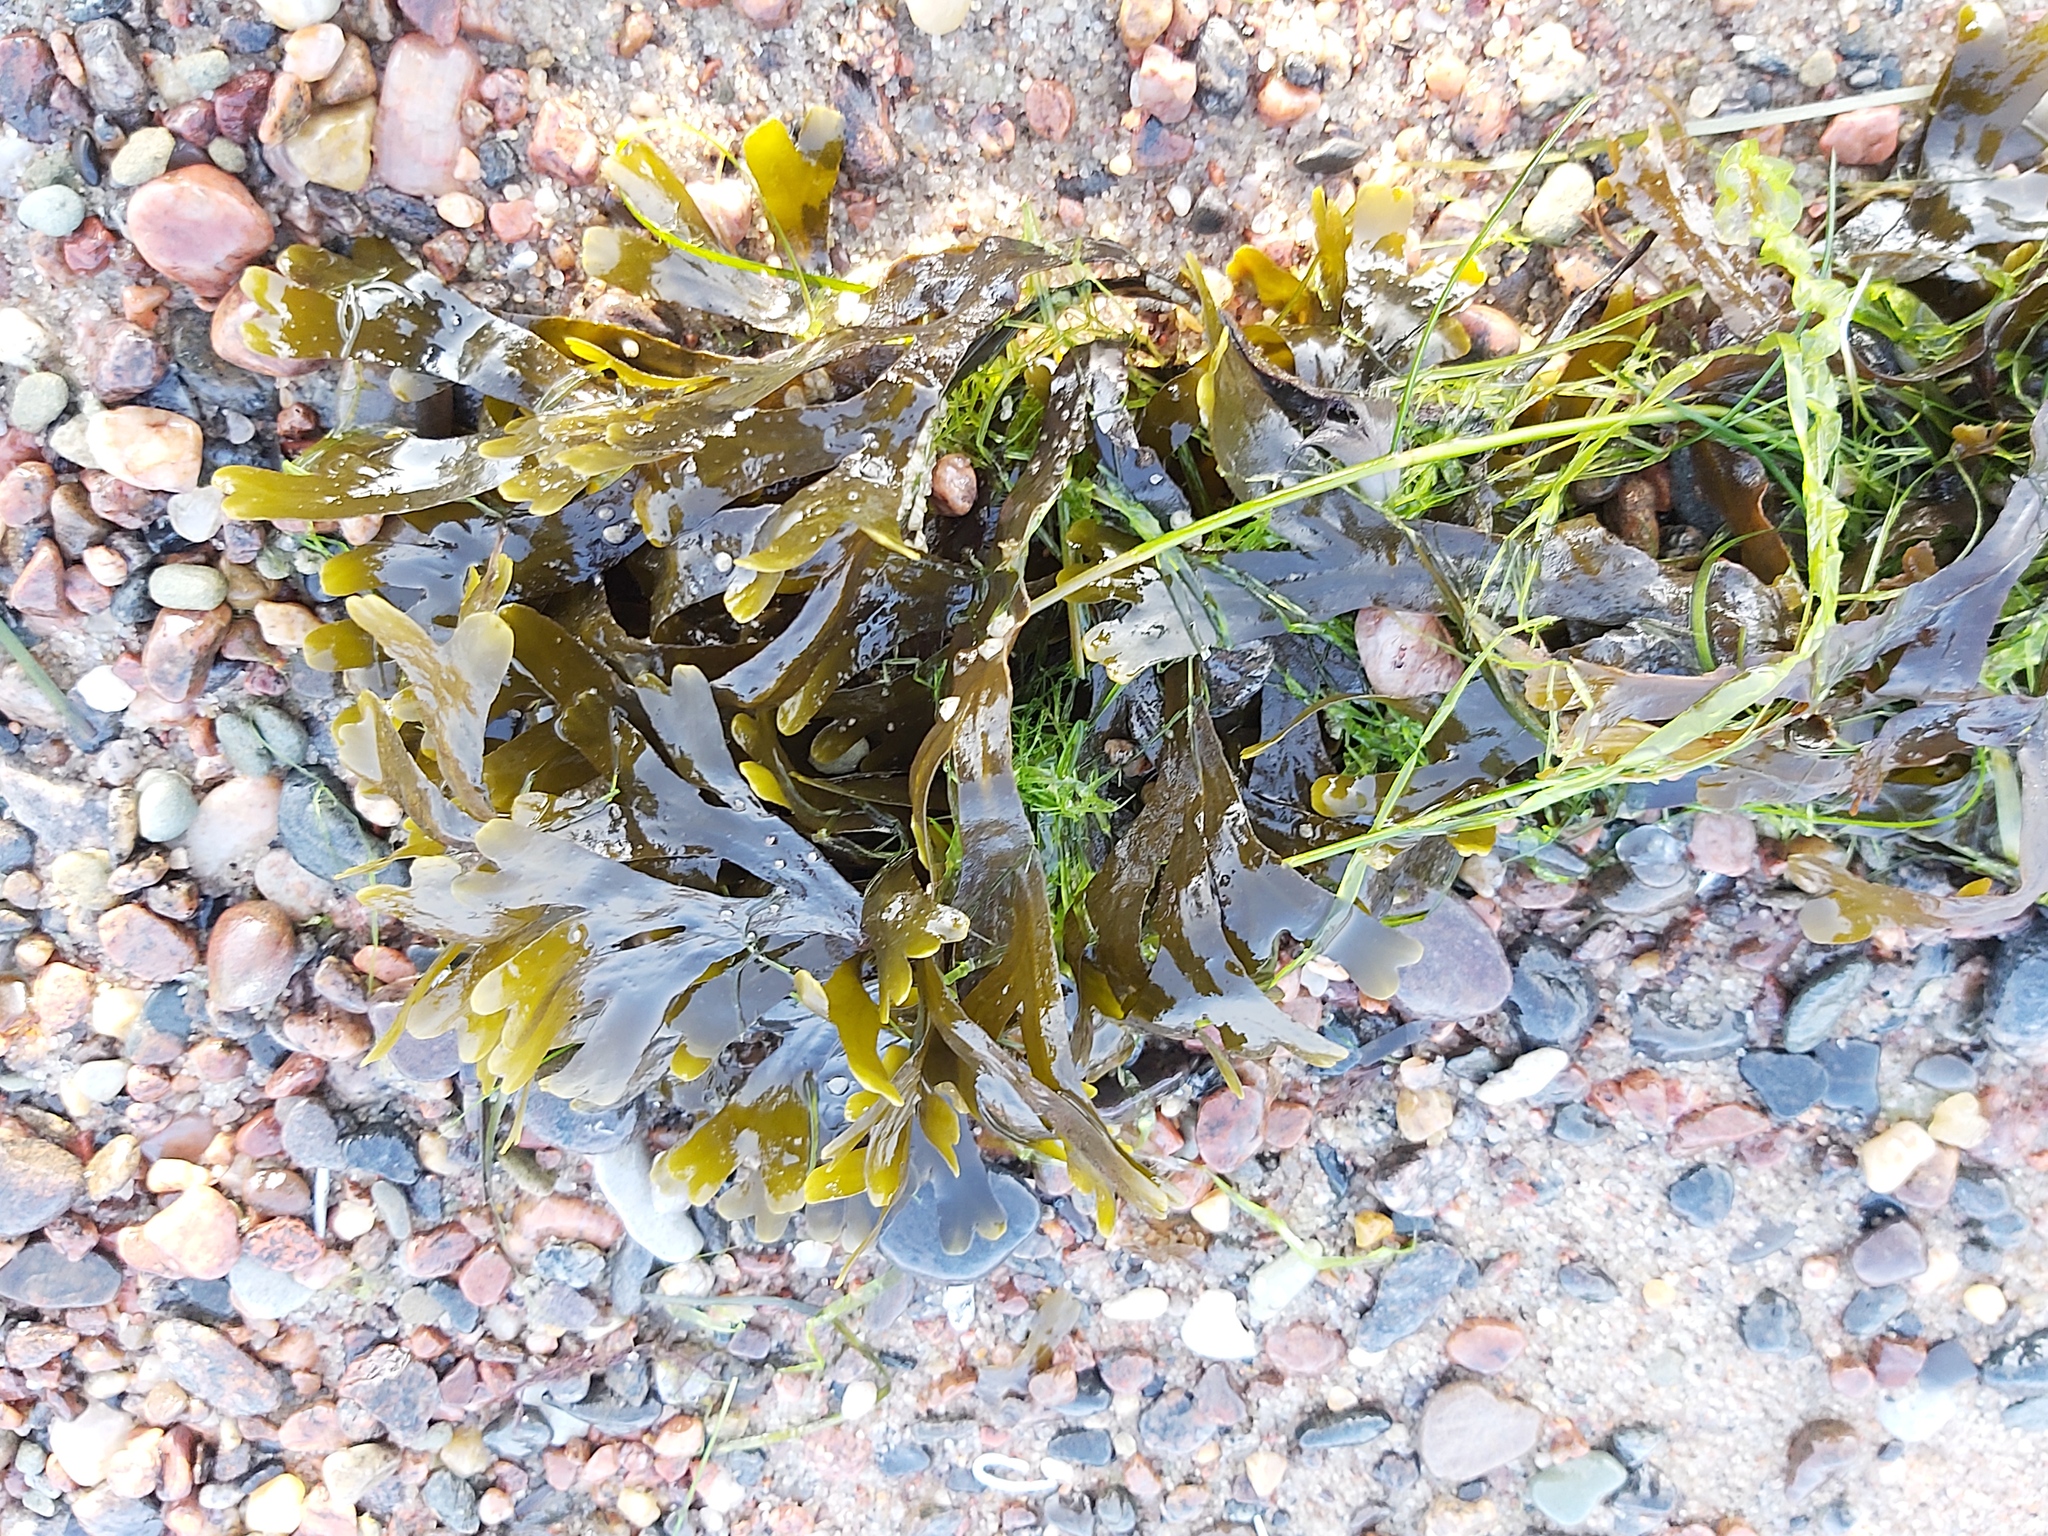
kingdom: Chromista
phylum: Ochrophyta
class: Phaeophyceae
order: Fucales
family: Fucaceae
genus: Fucus
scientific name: Fucus vesiculosus
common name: Bladder wrack
